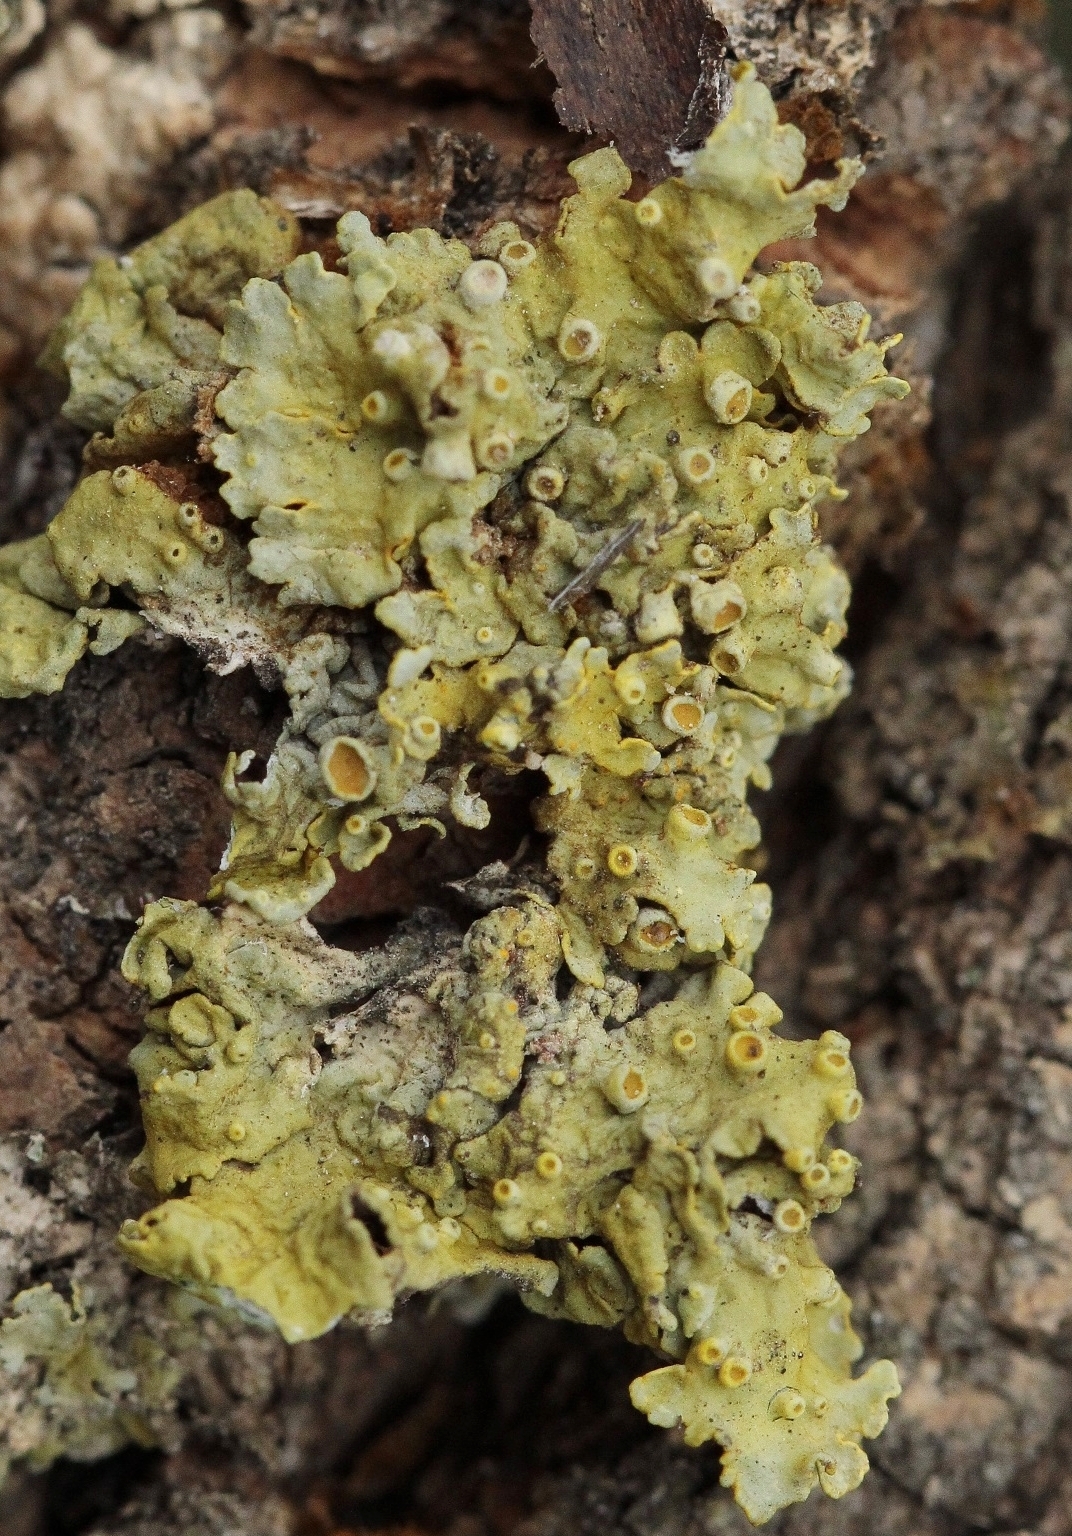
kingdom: Fungi
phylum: Ascomycota
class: Lecanoromycetes
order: Teloschistales
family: Teloschistaceae
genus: Xanthoria
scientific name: Xanthoria parietina
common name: Common orange lichen
